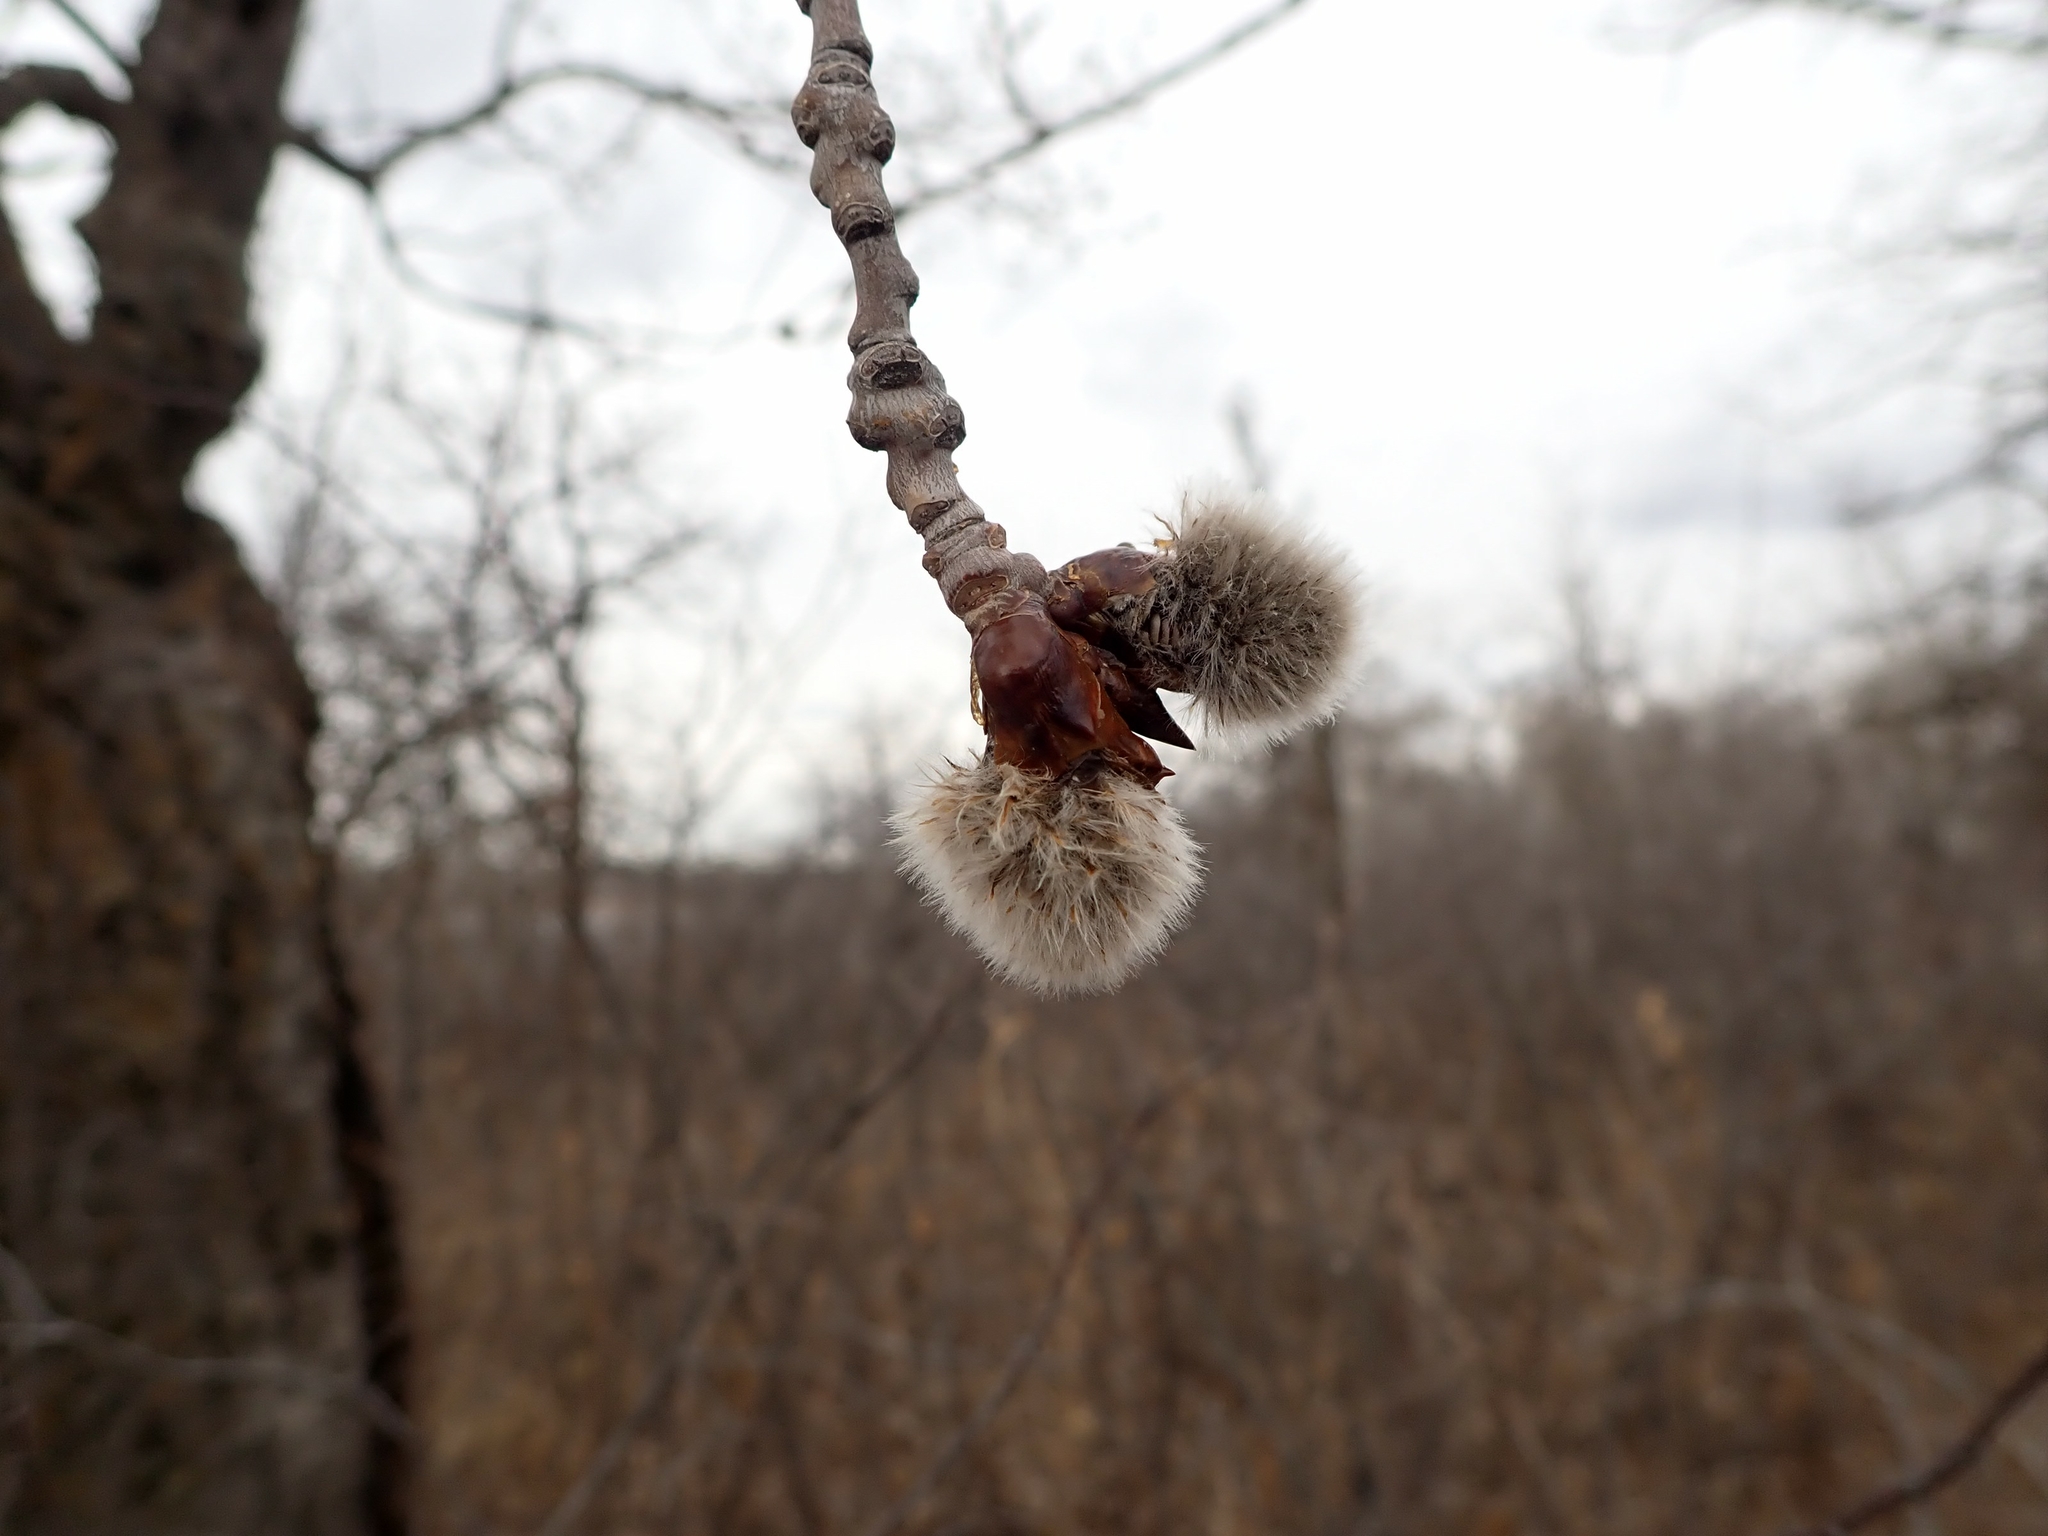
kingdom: Plantae
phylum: Tracheophyta
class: Magnoliopsida
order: Malpighiales
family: Salicaceae
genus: Populus
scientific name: Populus tremuloides
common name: Quaking aspen
